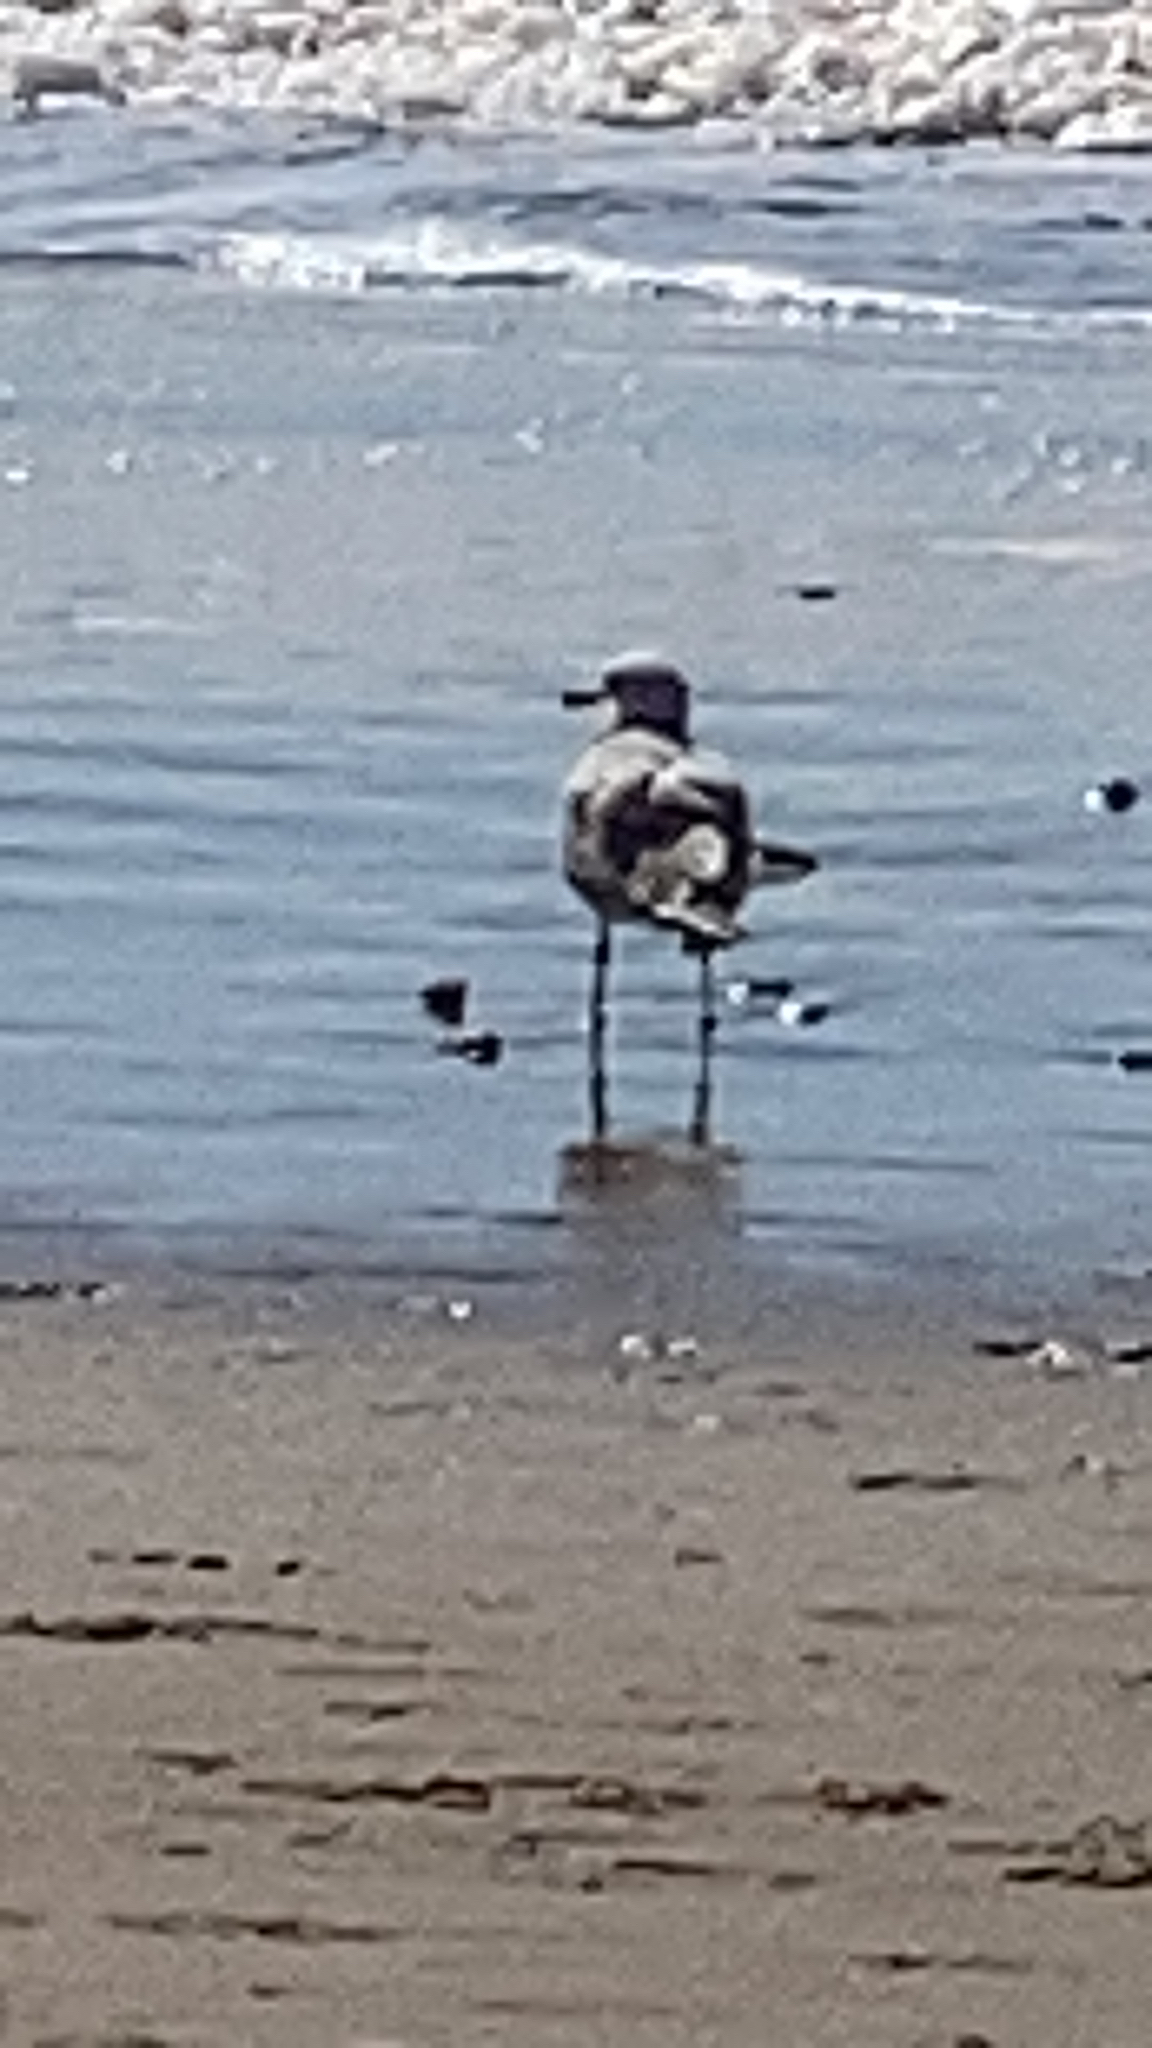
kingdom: Animalia
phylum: Chordata
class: Aves
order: Charadriiformes
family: Laridae
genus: Larus
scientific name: Larus
